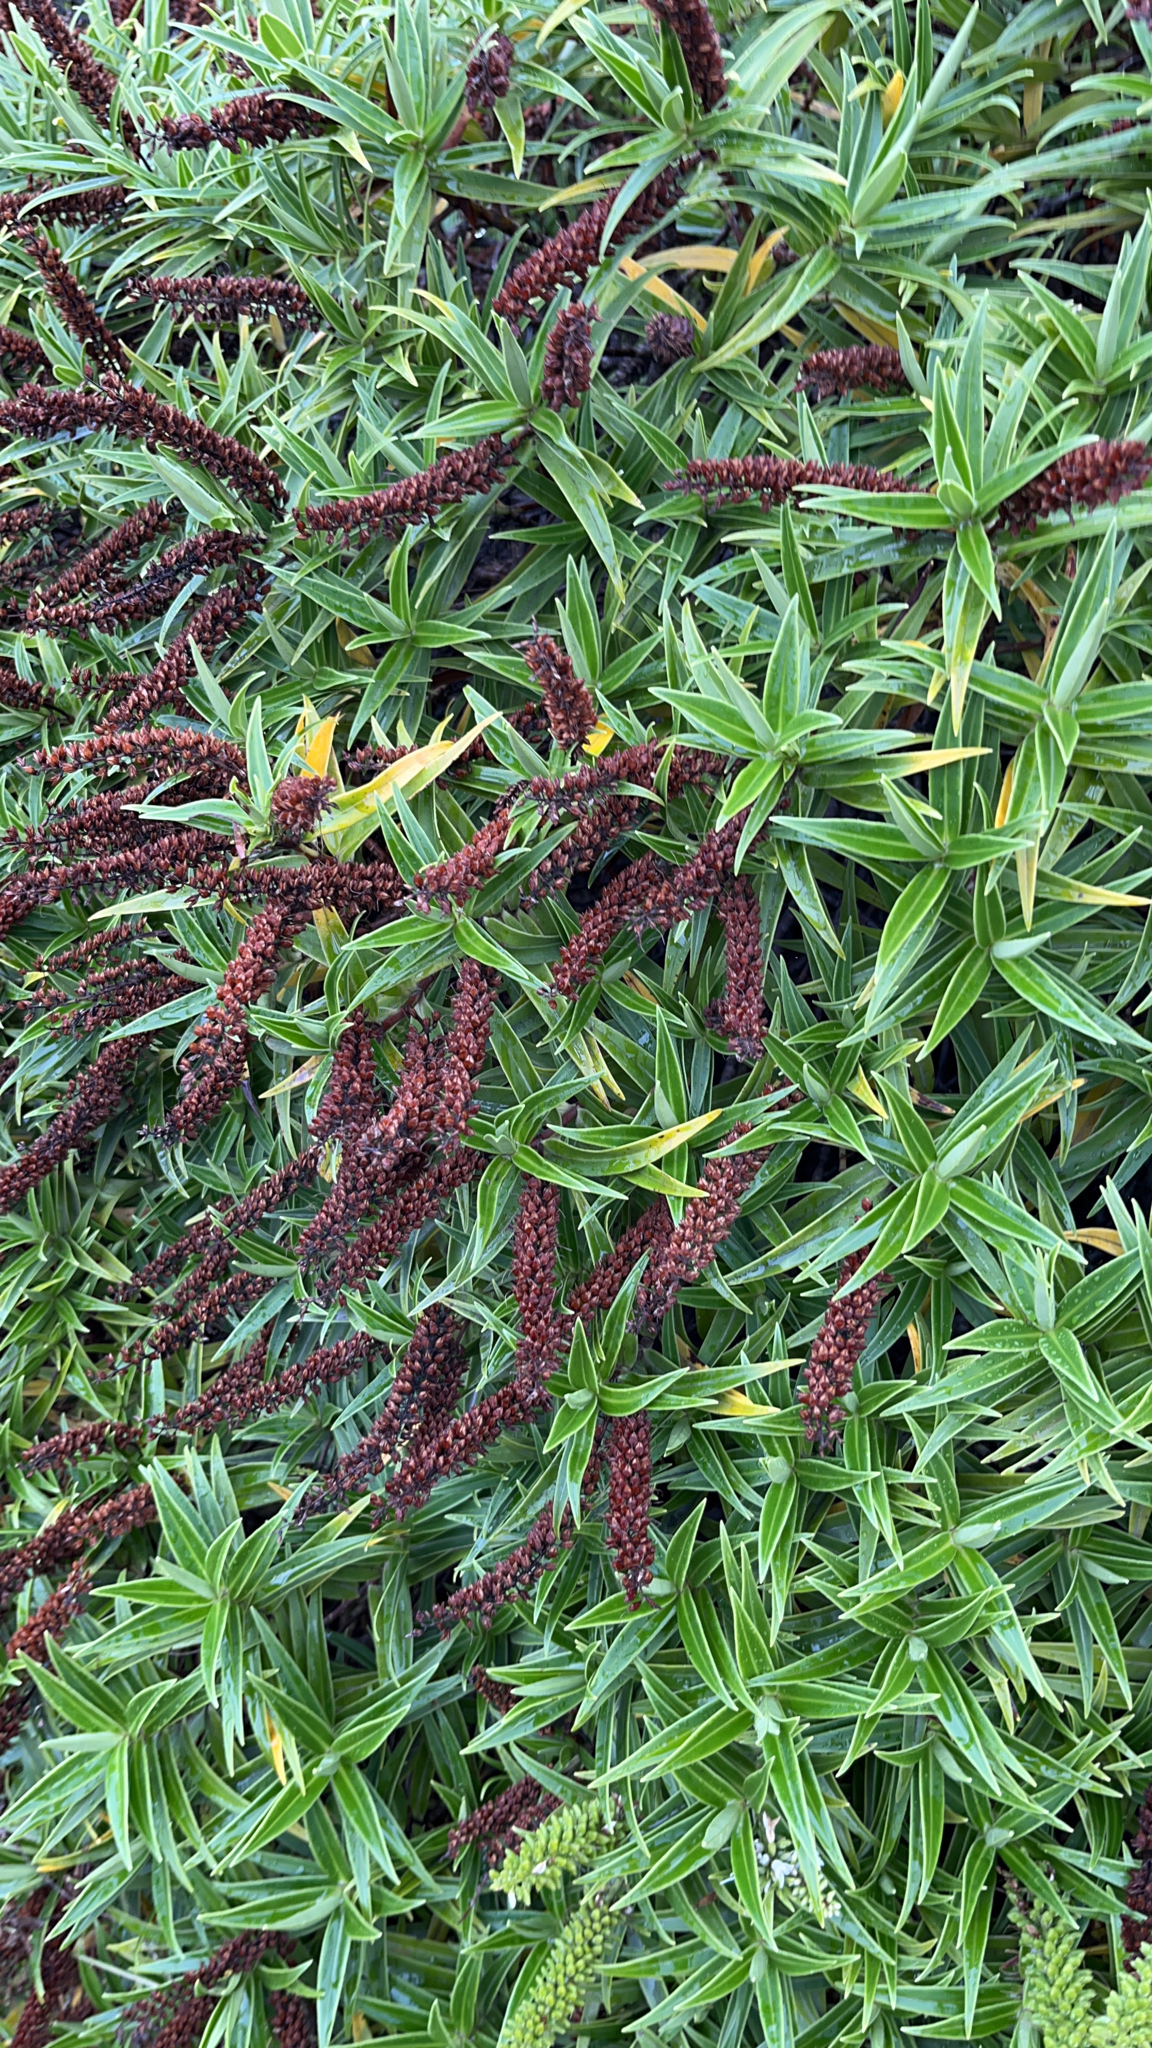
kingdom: Plantae
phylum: Tracheophyta
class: Magnoliopsida
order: Lamiales
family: Plantaginaceae
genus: Veronica
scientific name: Veronica salicifolia
